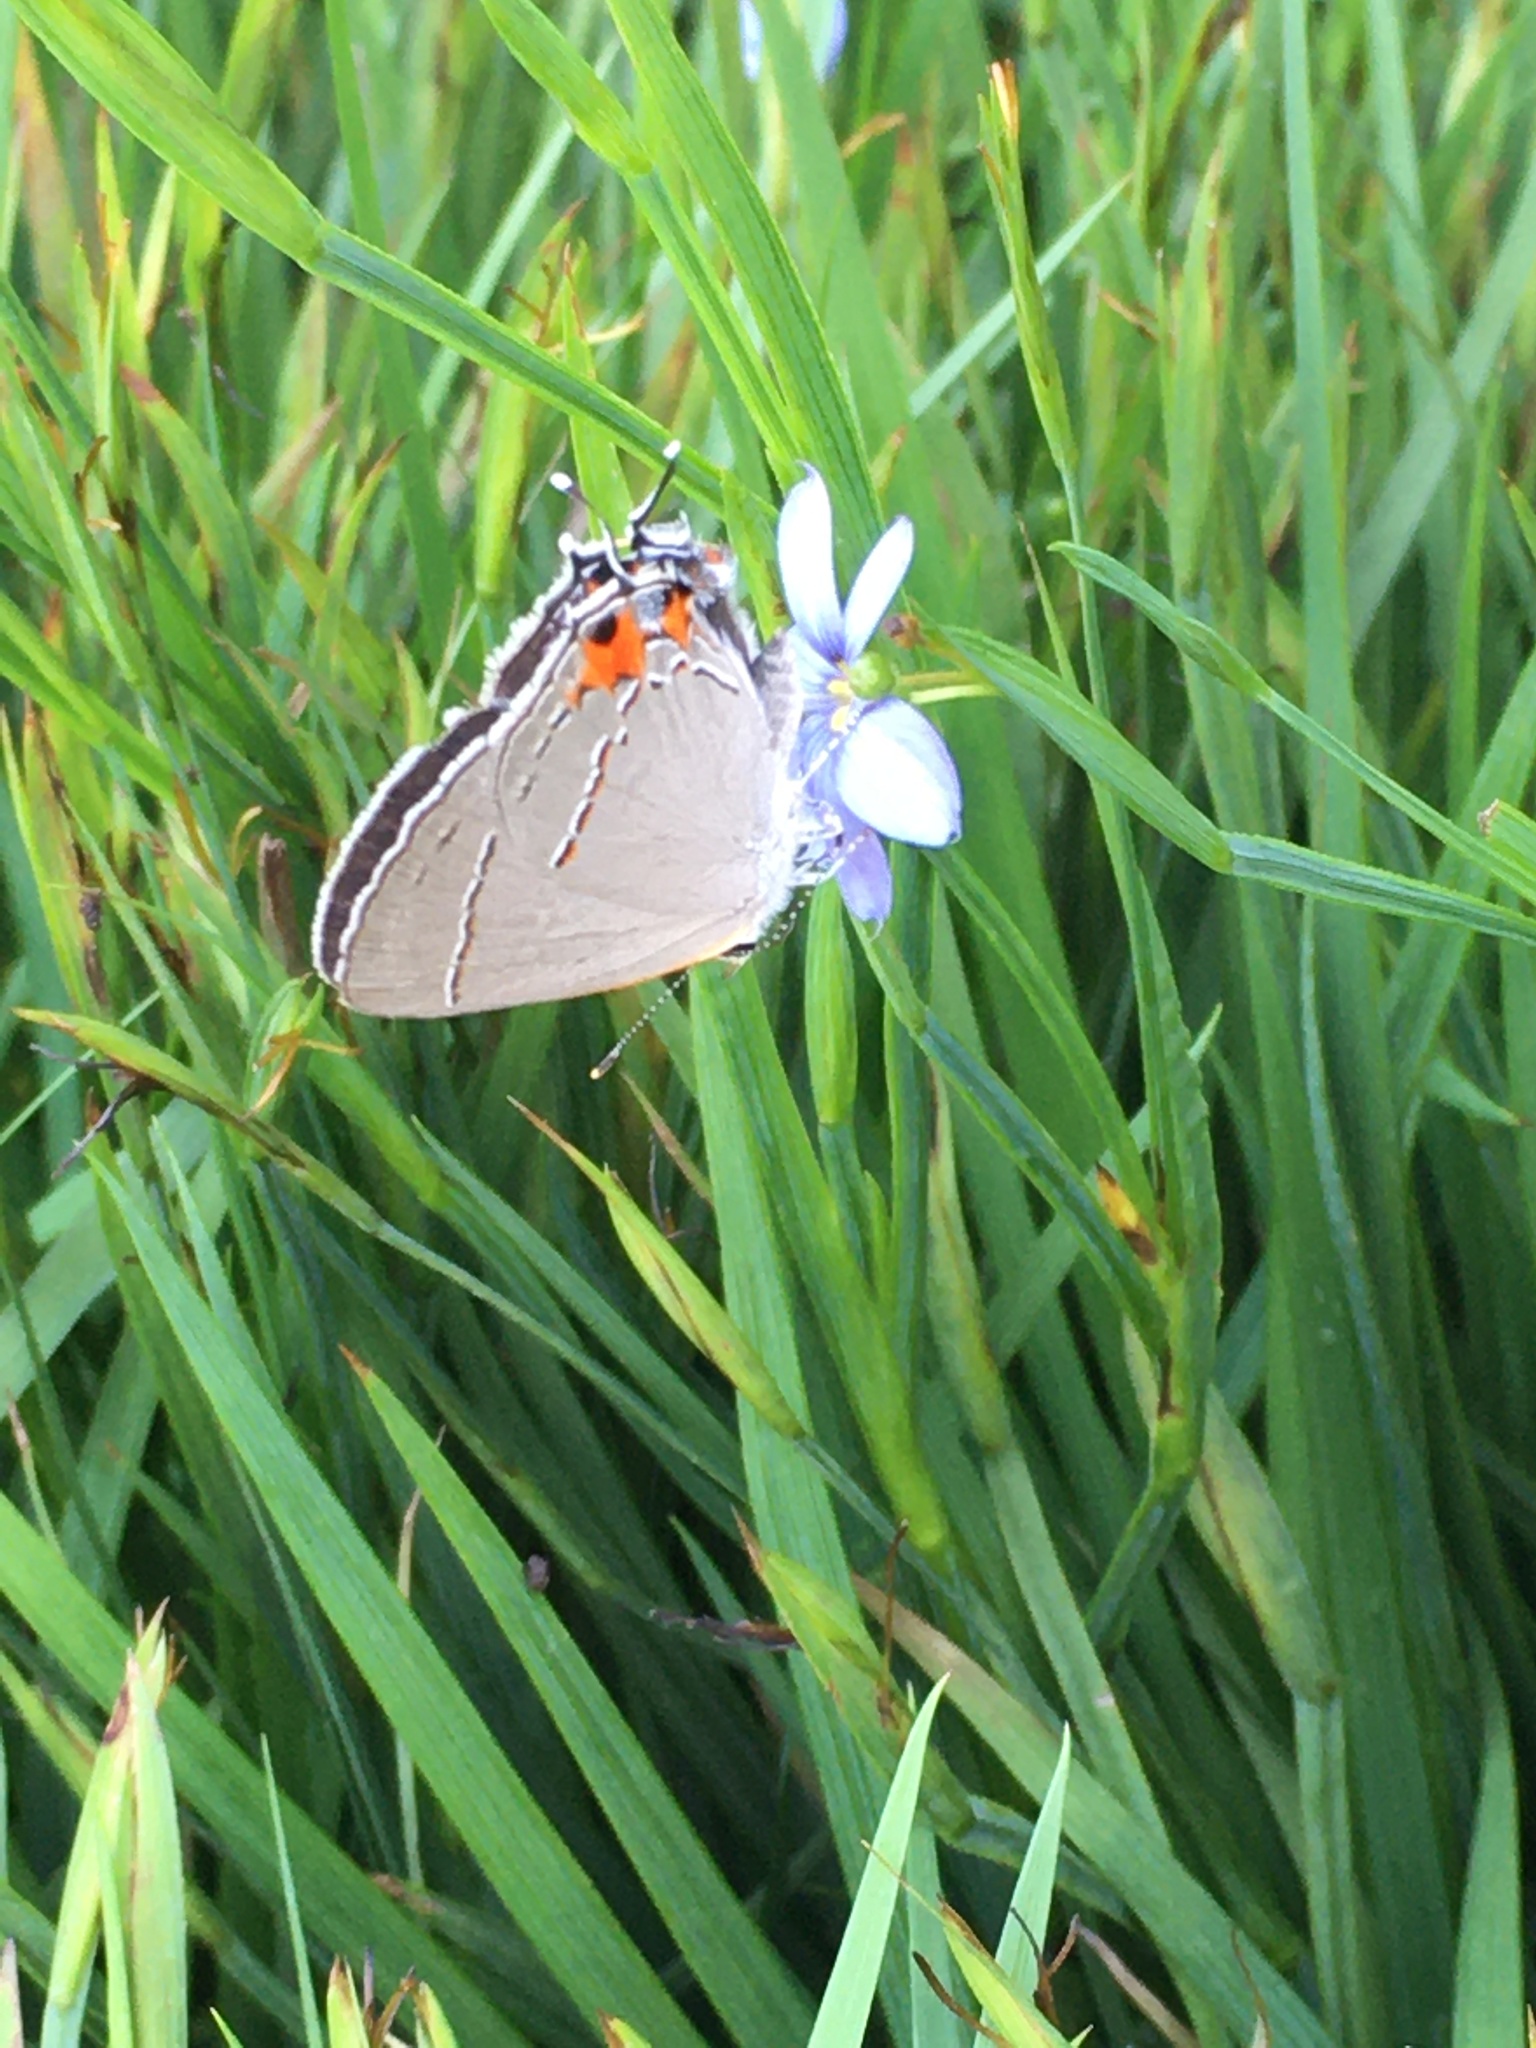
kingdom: Animalia
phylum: Arthropoda
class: Insecta
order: Lepidoptera
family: Lycaenidae
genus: Strymon
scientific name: Strymon melinus
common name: Gray hairstreak
